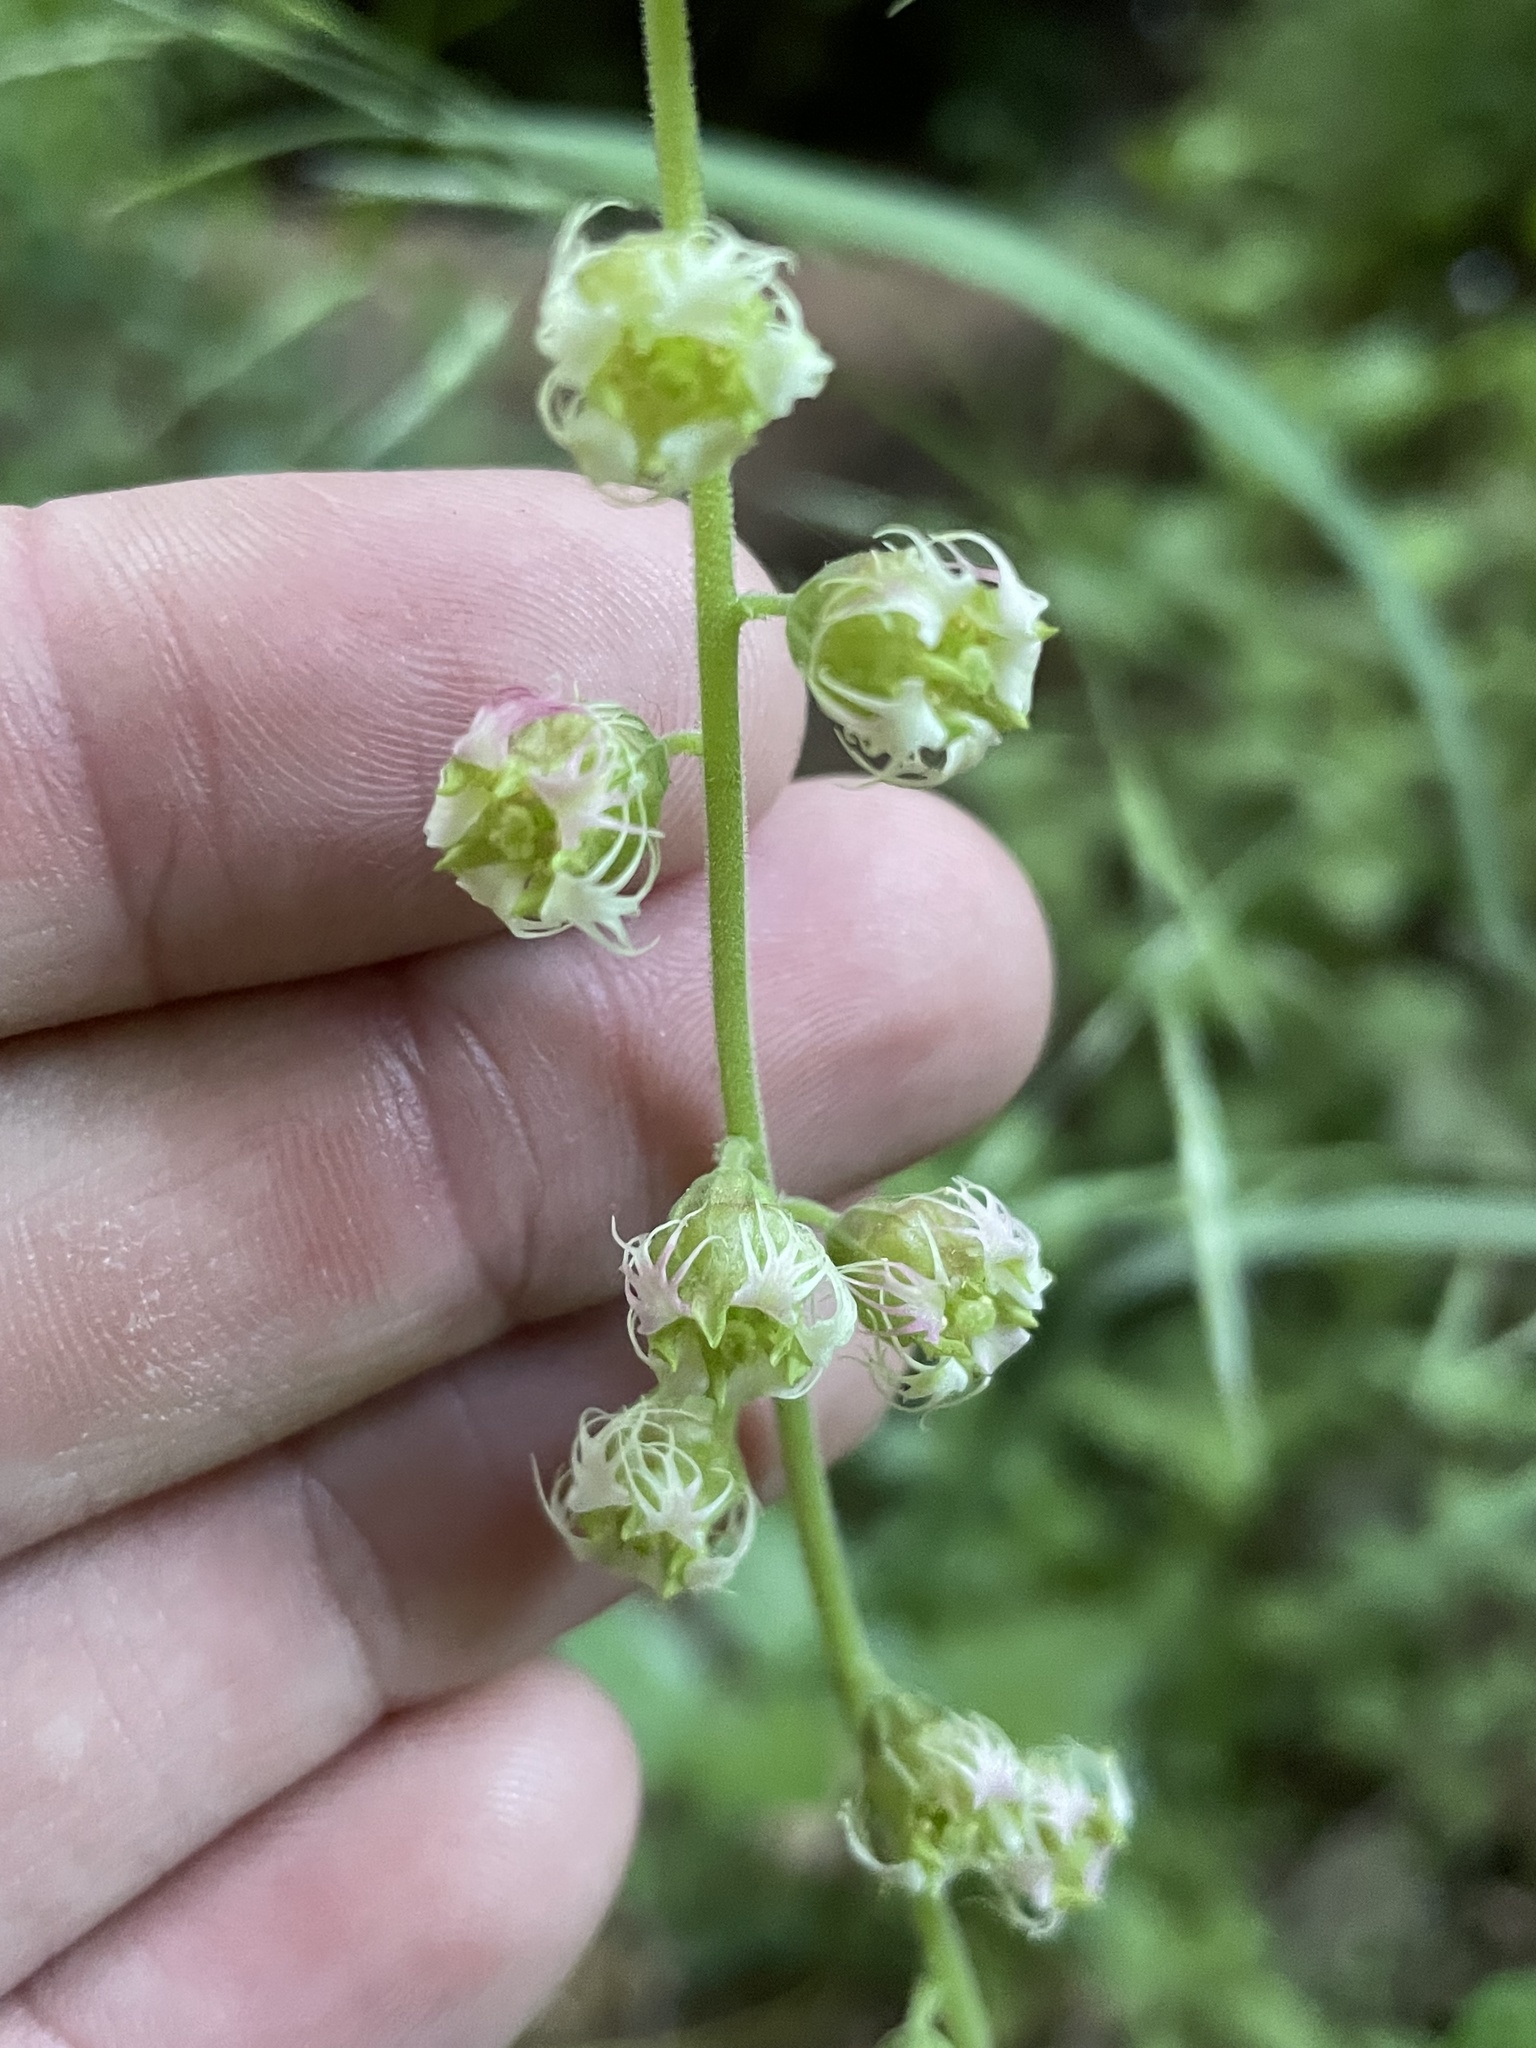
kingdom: Plantae
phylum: Tracheophyta
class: Magnoliopsida
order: Saxifragales
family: Saxifragaceae
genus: Tellima
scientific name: Tellima grandiflora
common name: Fringecups
